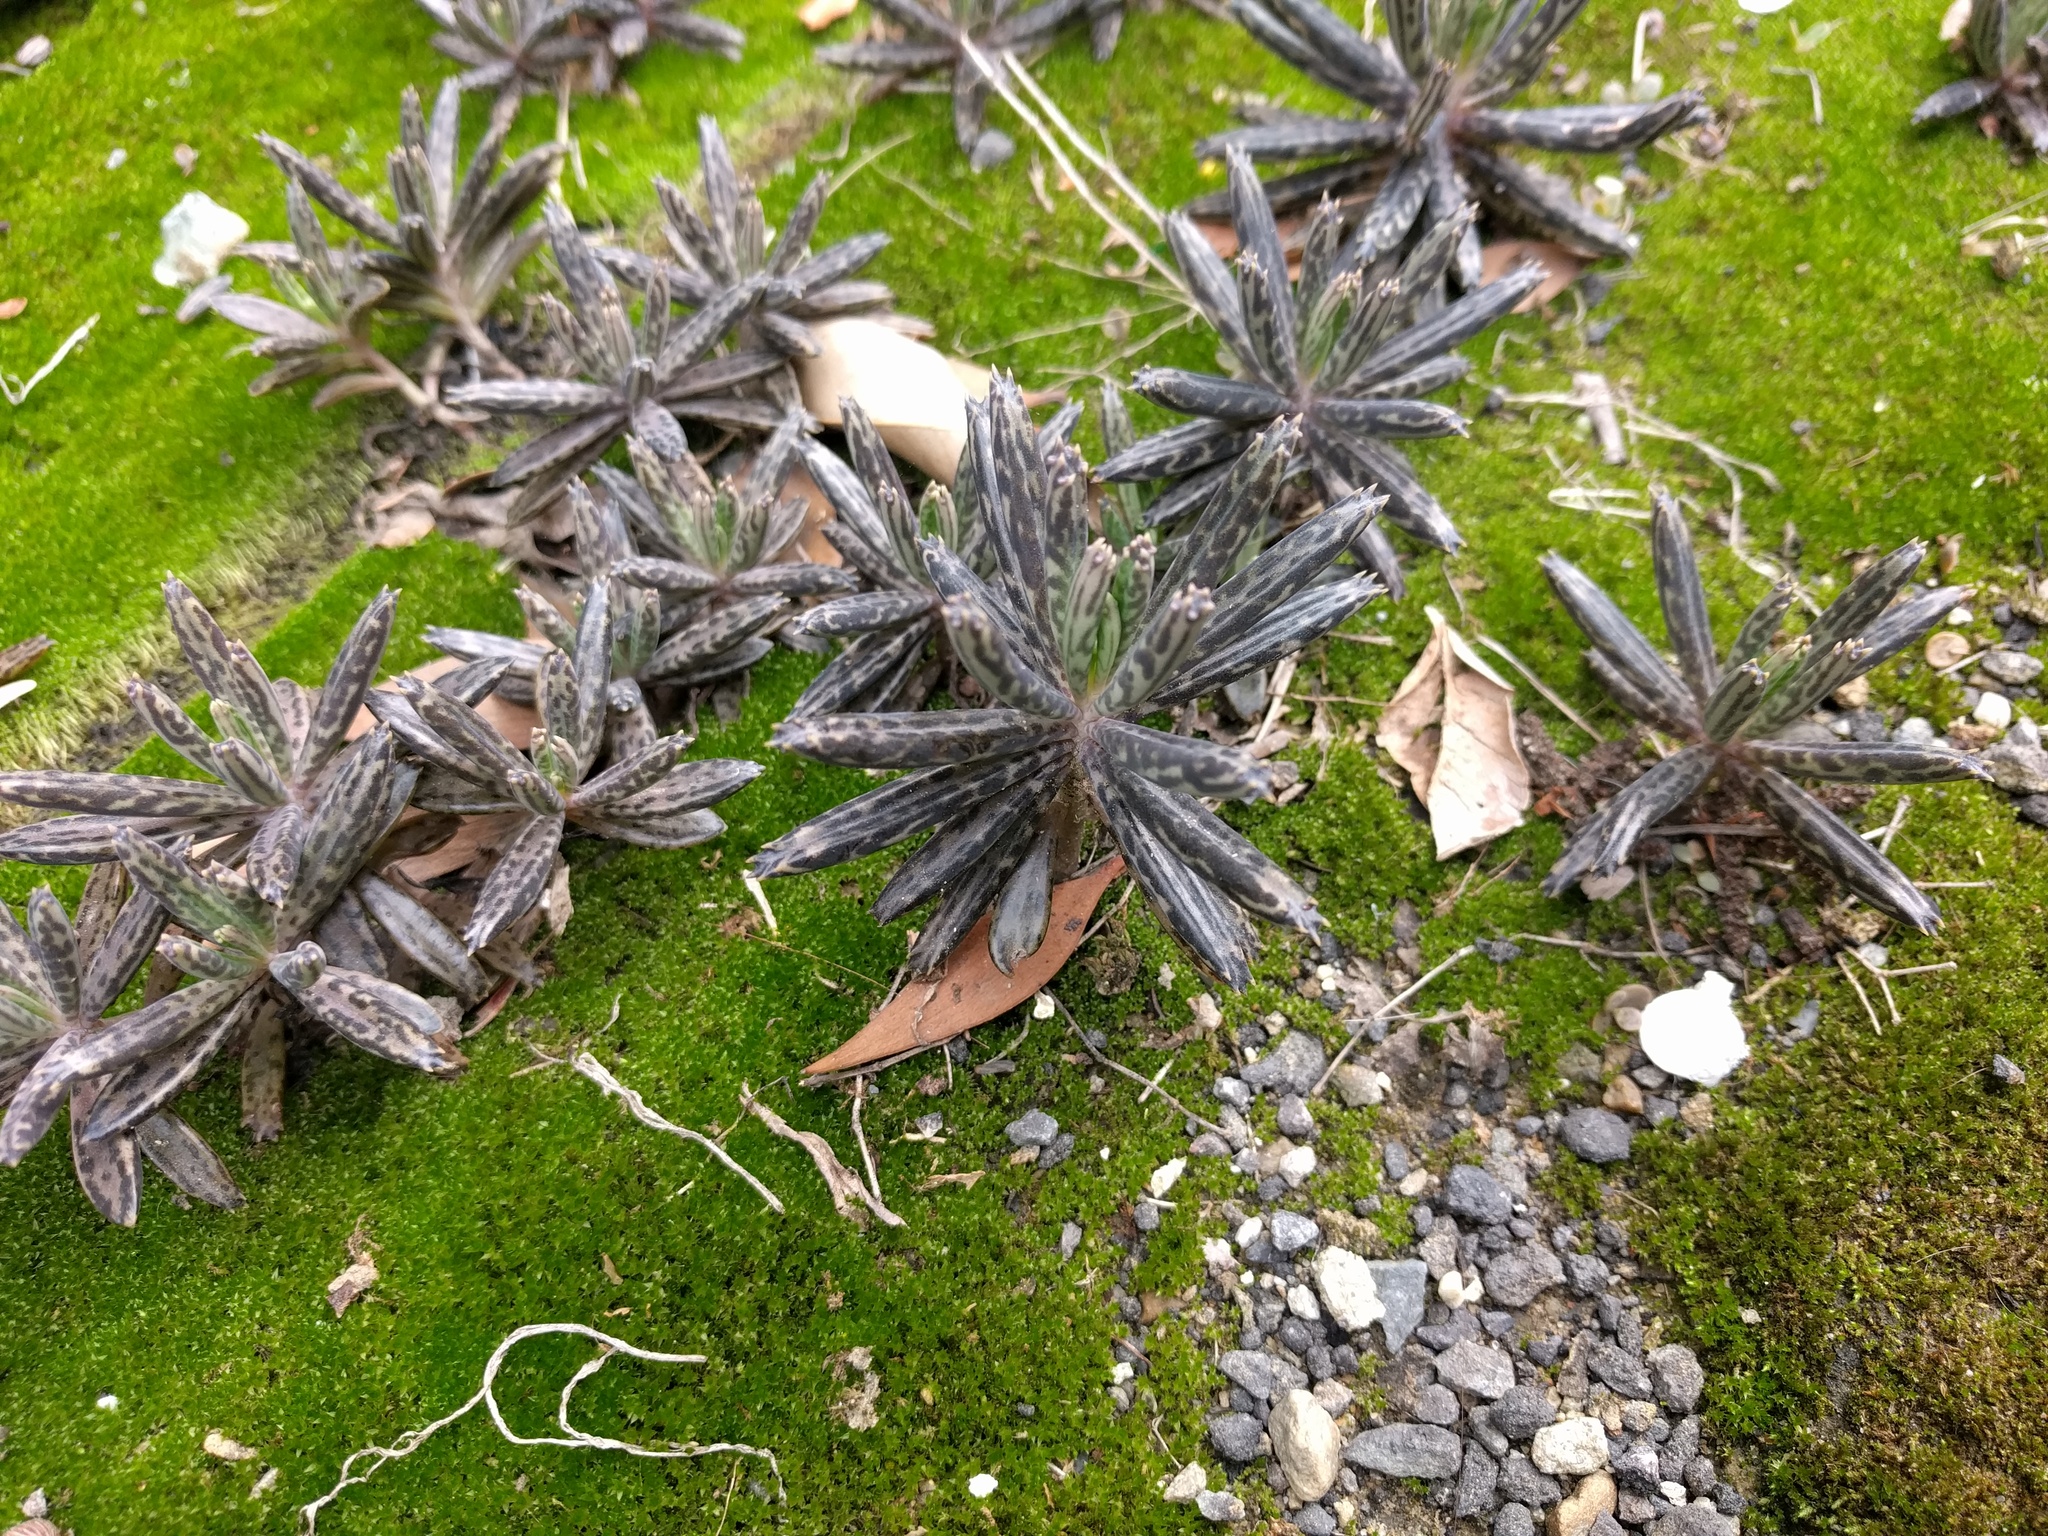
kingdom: Plantae
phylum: Tracheophyta
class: Magnoliopsida
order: Saxifragales
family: Crassulaceae
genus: Kalanchoe
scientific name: Kalanchoe delagoensis
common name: Chandelier plant
